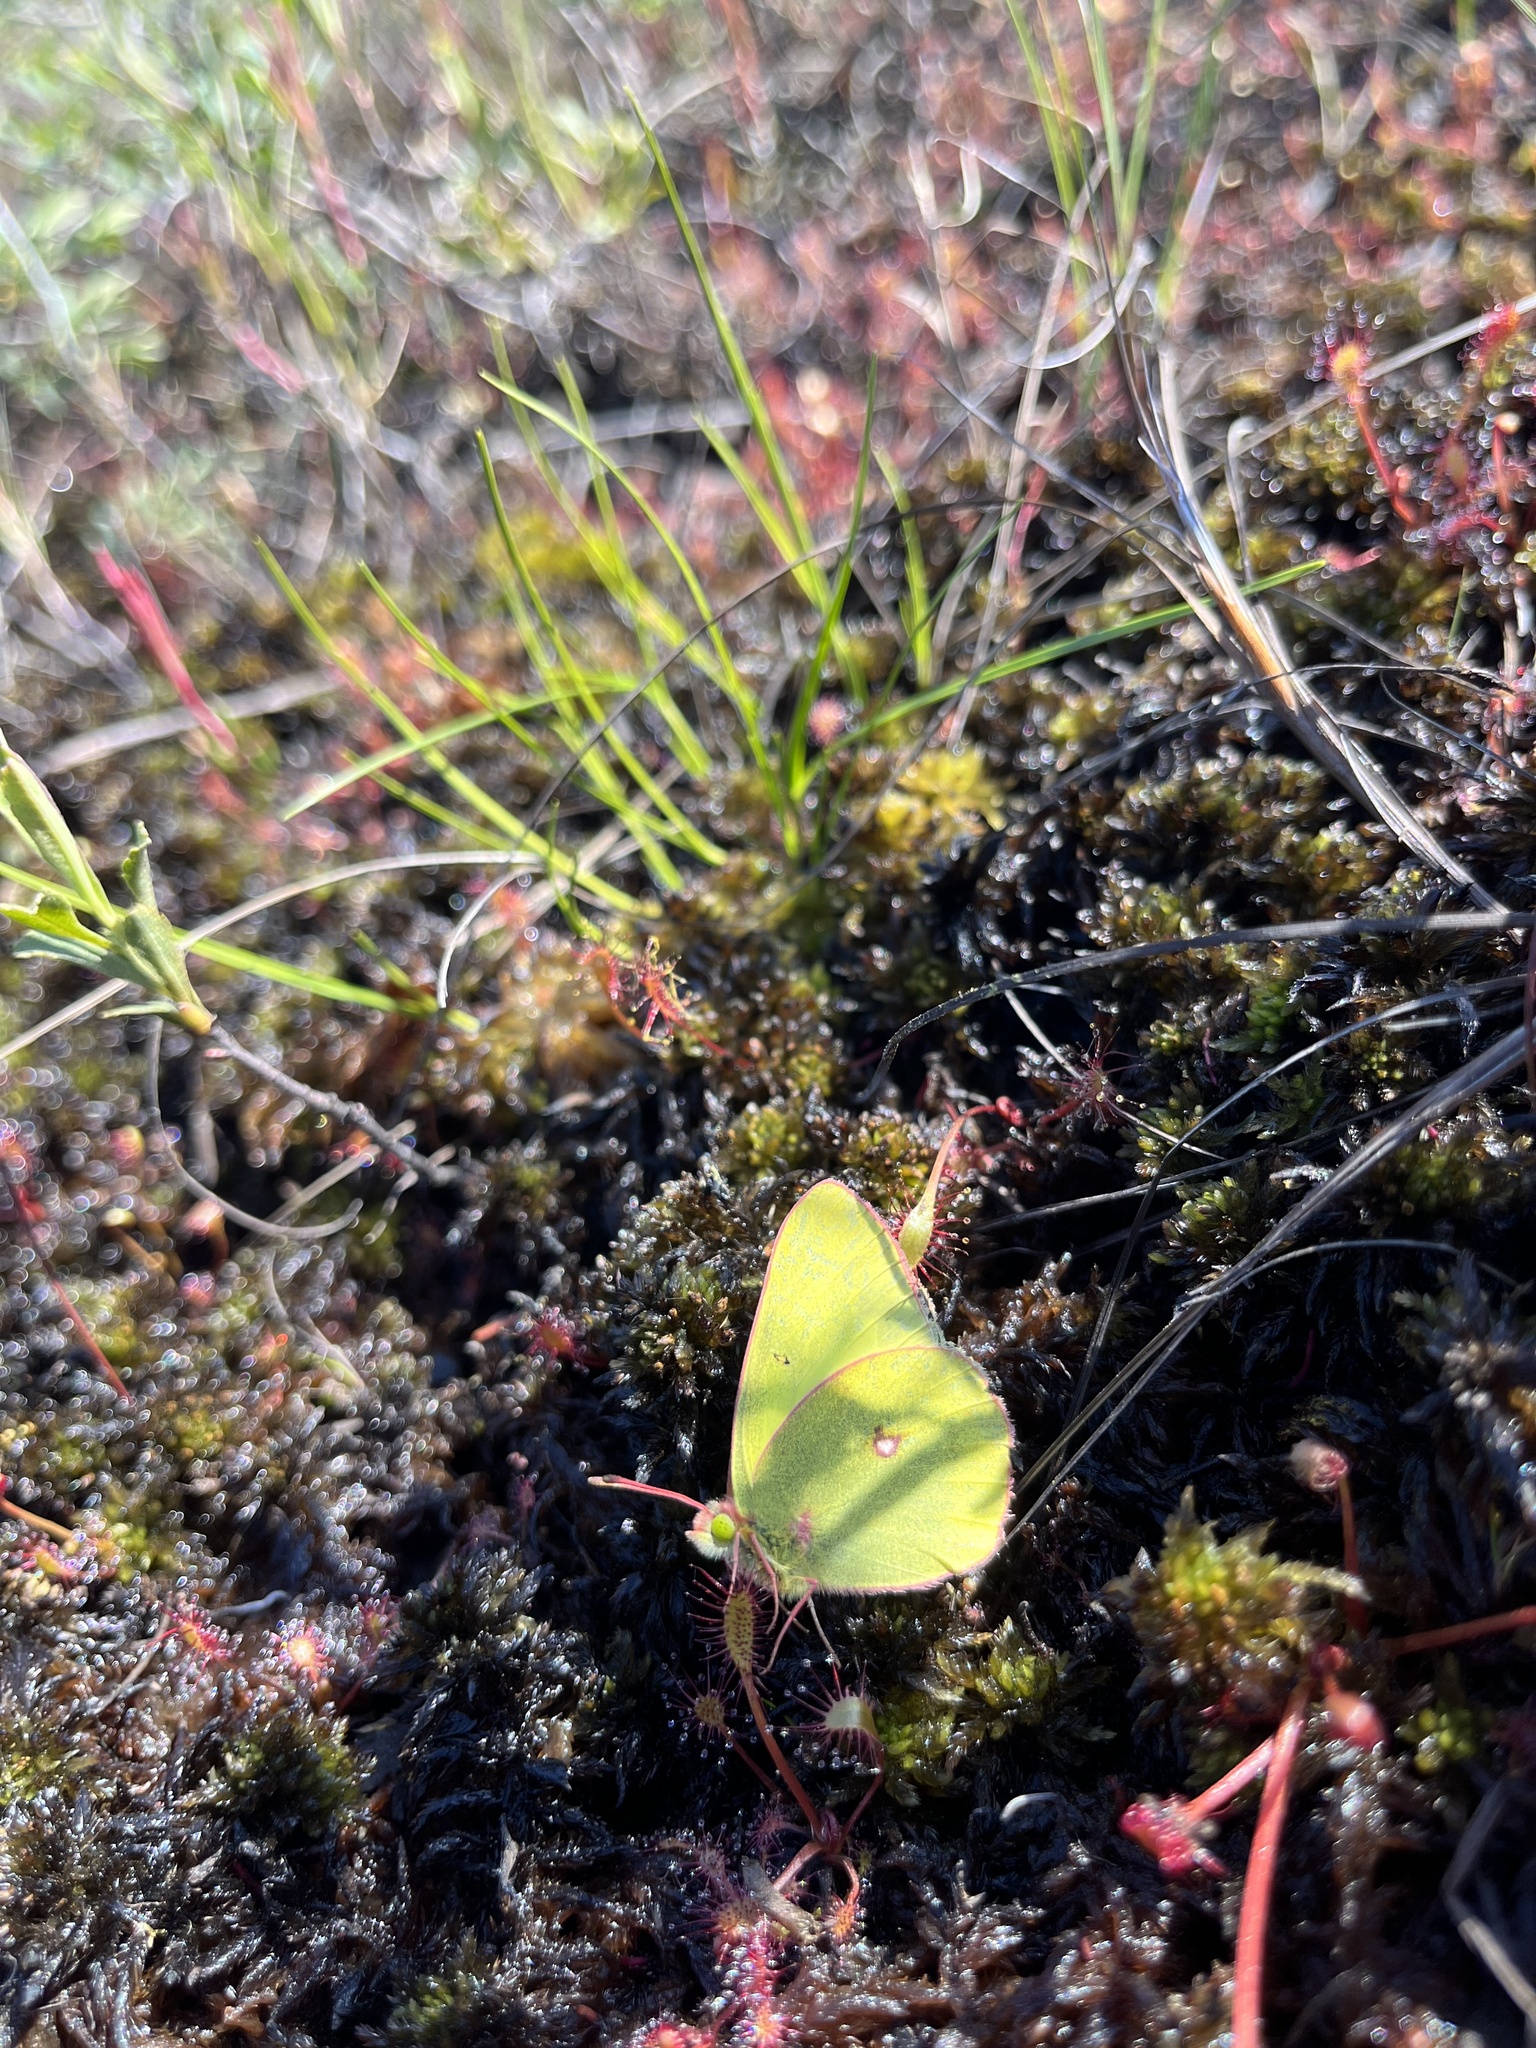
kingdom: Animalia
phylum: Arthropoda
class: Insecta
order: Lepidoptera
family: Pieridae
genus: Colias
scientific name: Colias philodice
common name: Clouded sulphur
